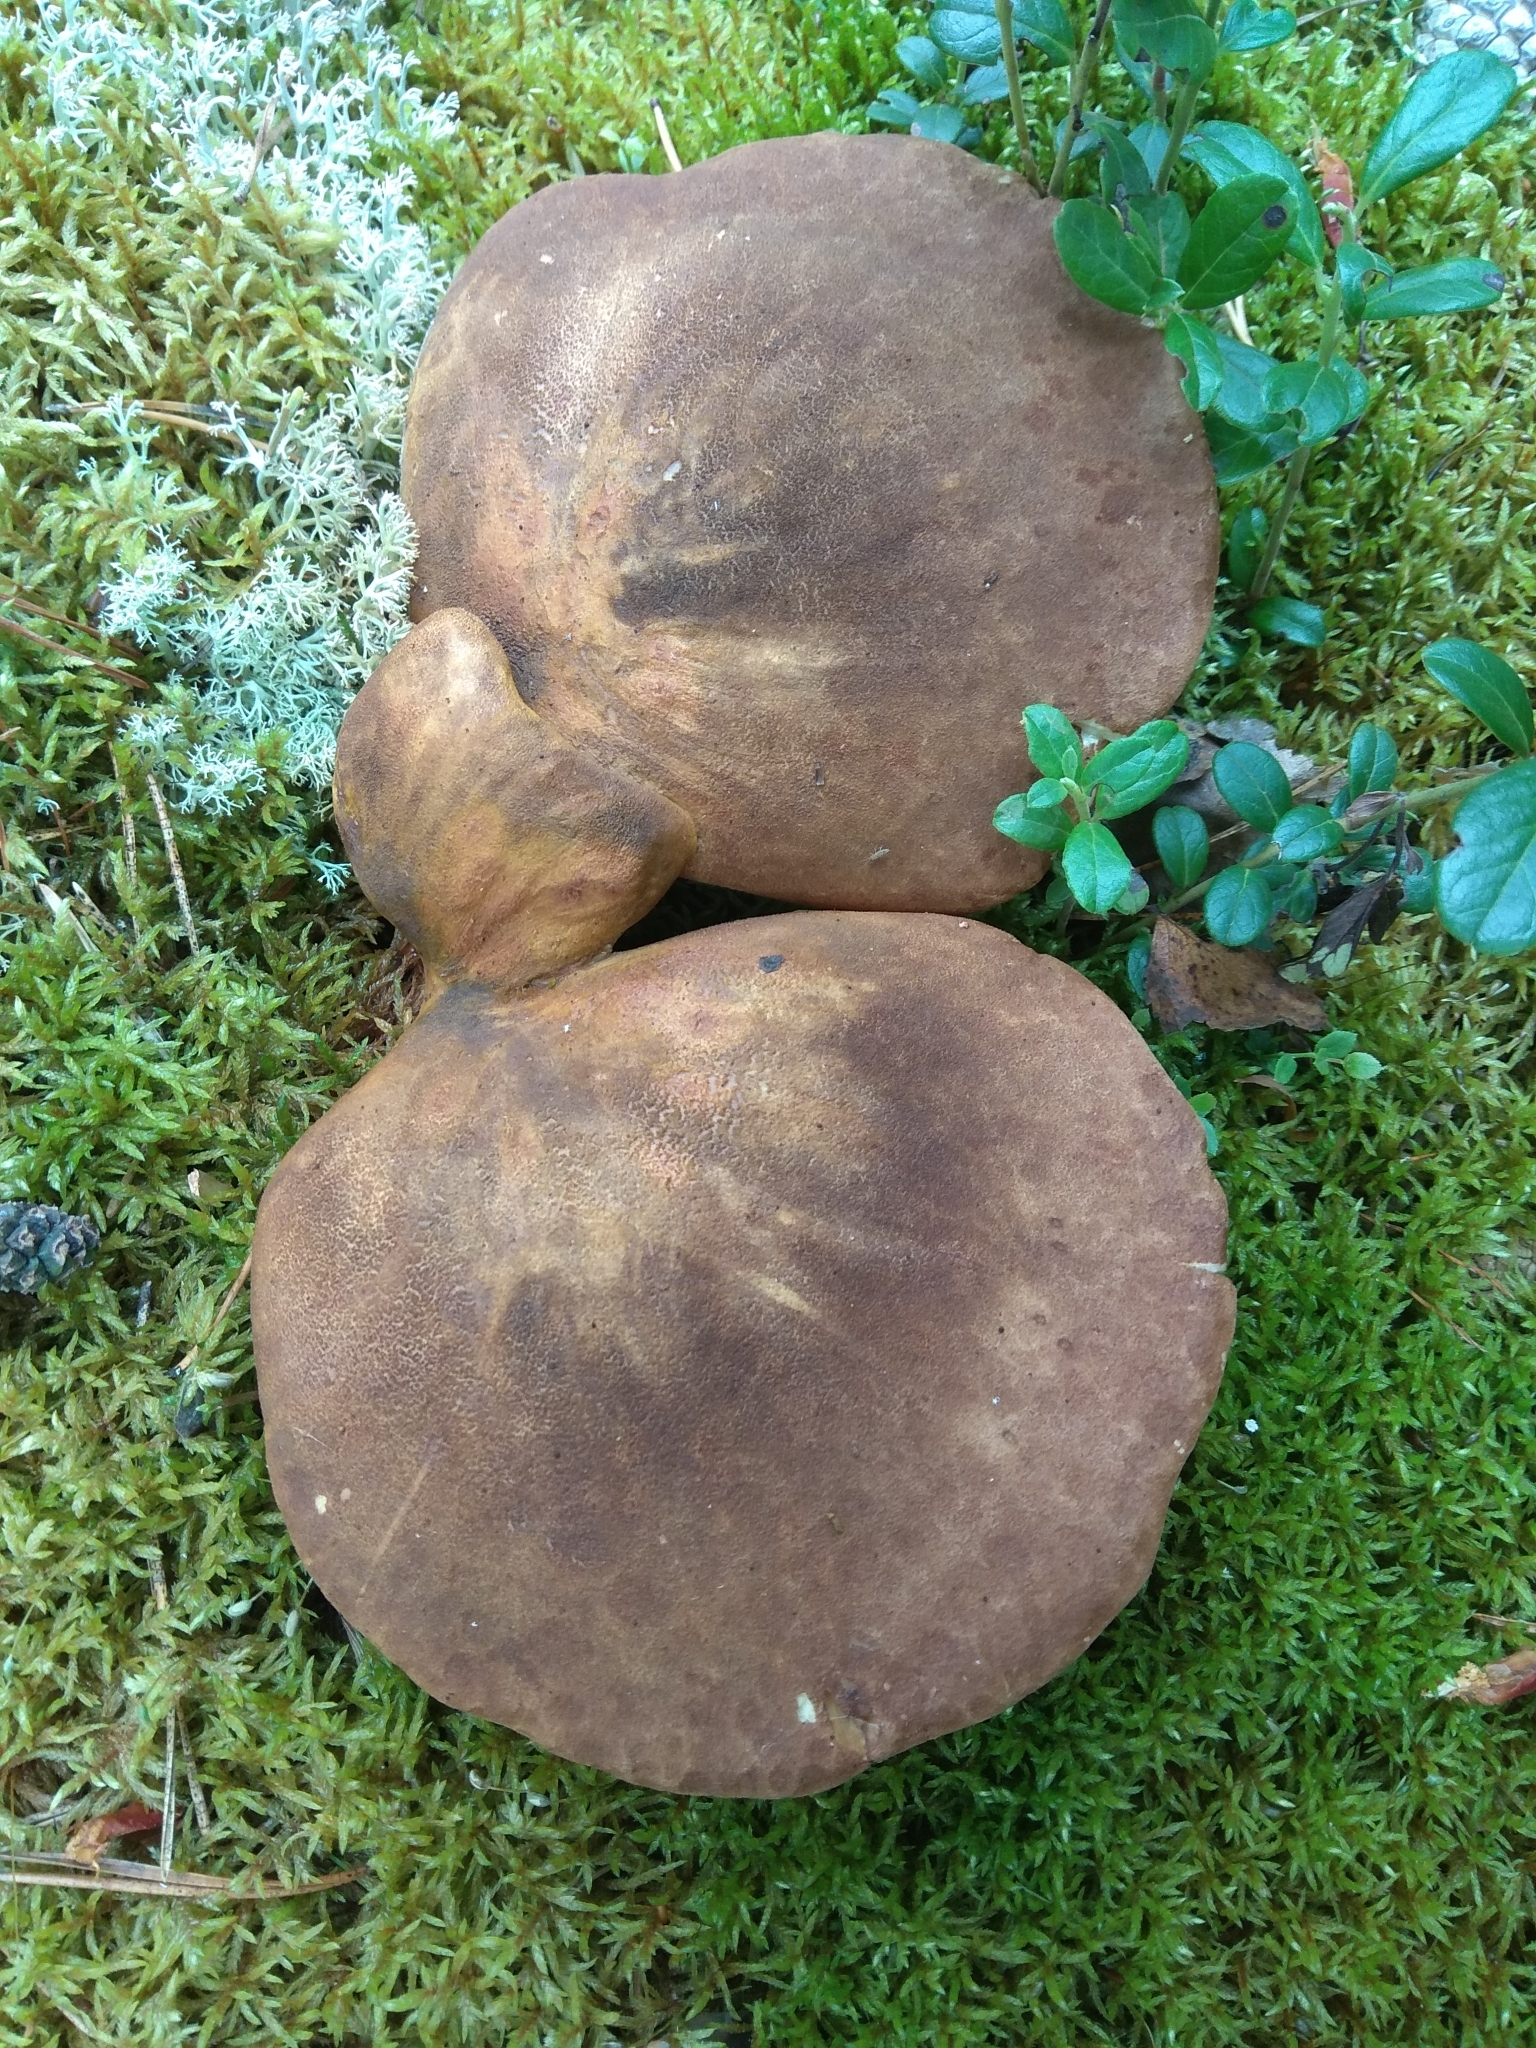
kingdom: Fungi
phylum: Basidiomycota
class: Agaricomycetes
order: Boletales
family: Tapinellaceae
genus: Tapinella
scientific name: Tapinella atrotomentosa
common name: Velvet rollrim
